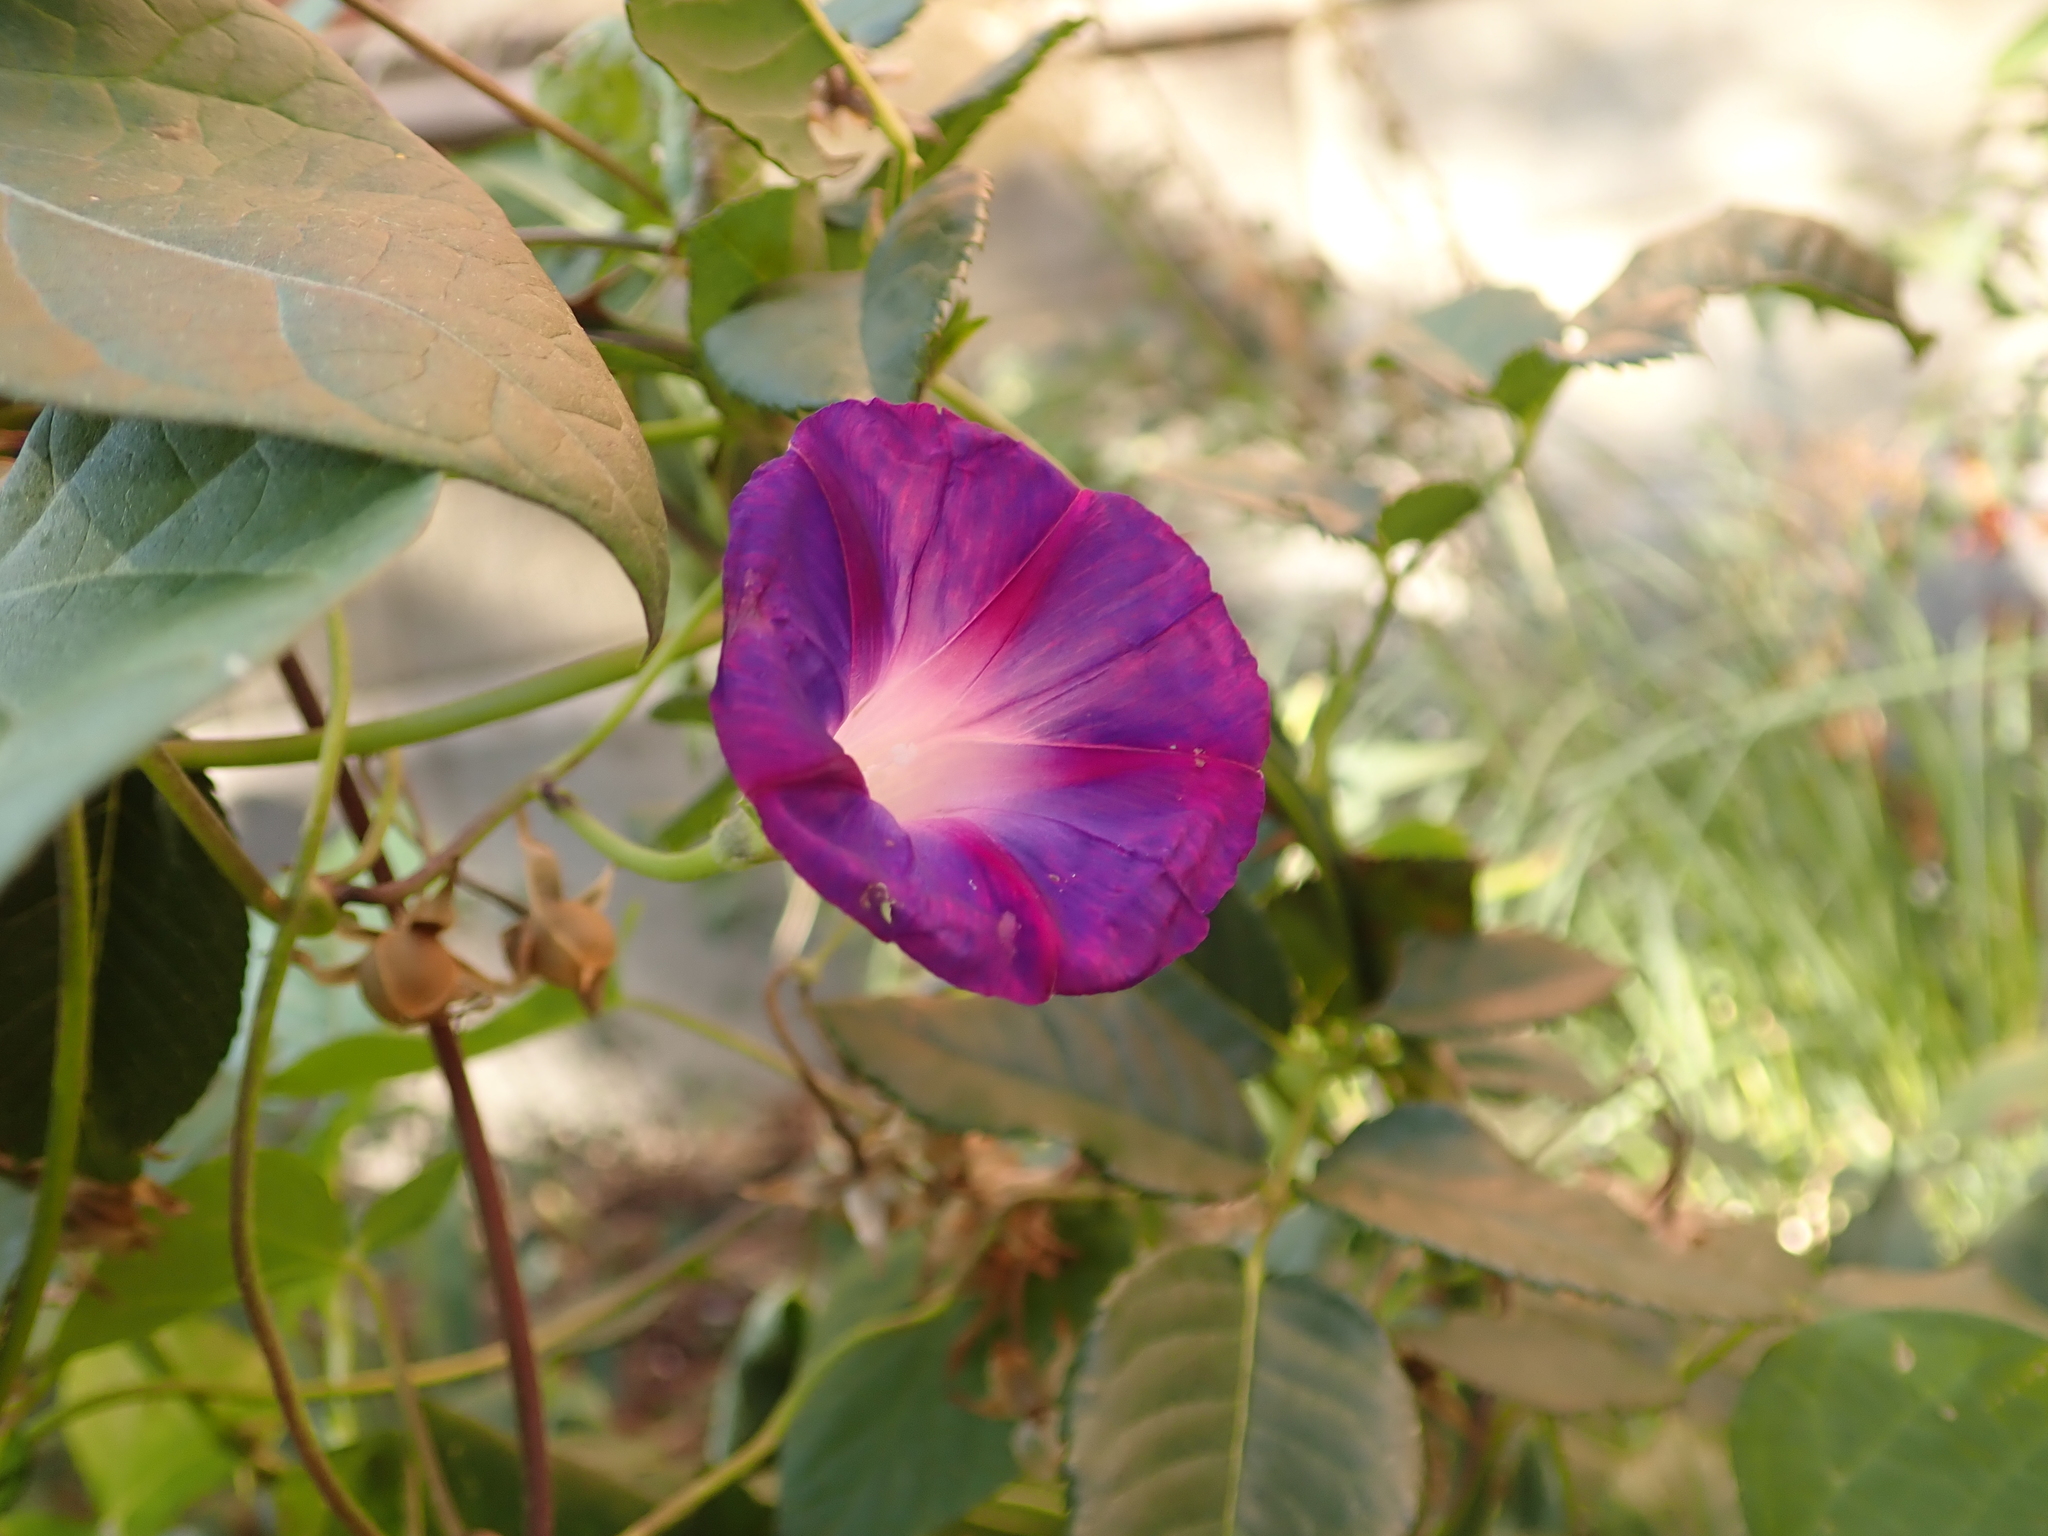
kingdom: Plantae
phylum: Tracheophyta
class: Magnoliopsida
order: Solanales
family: Convolvulaceae
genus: Ipomoea
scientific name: Ipomoea purpurea
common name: Common morning-glory
